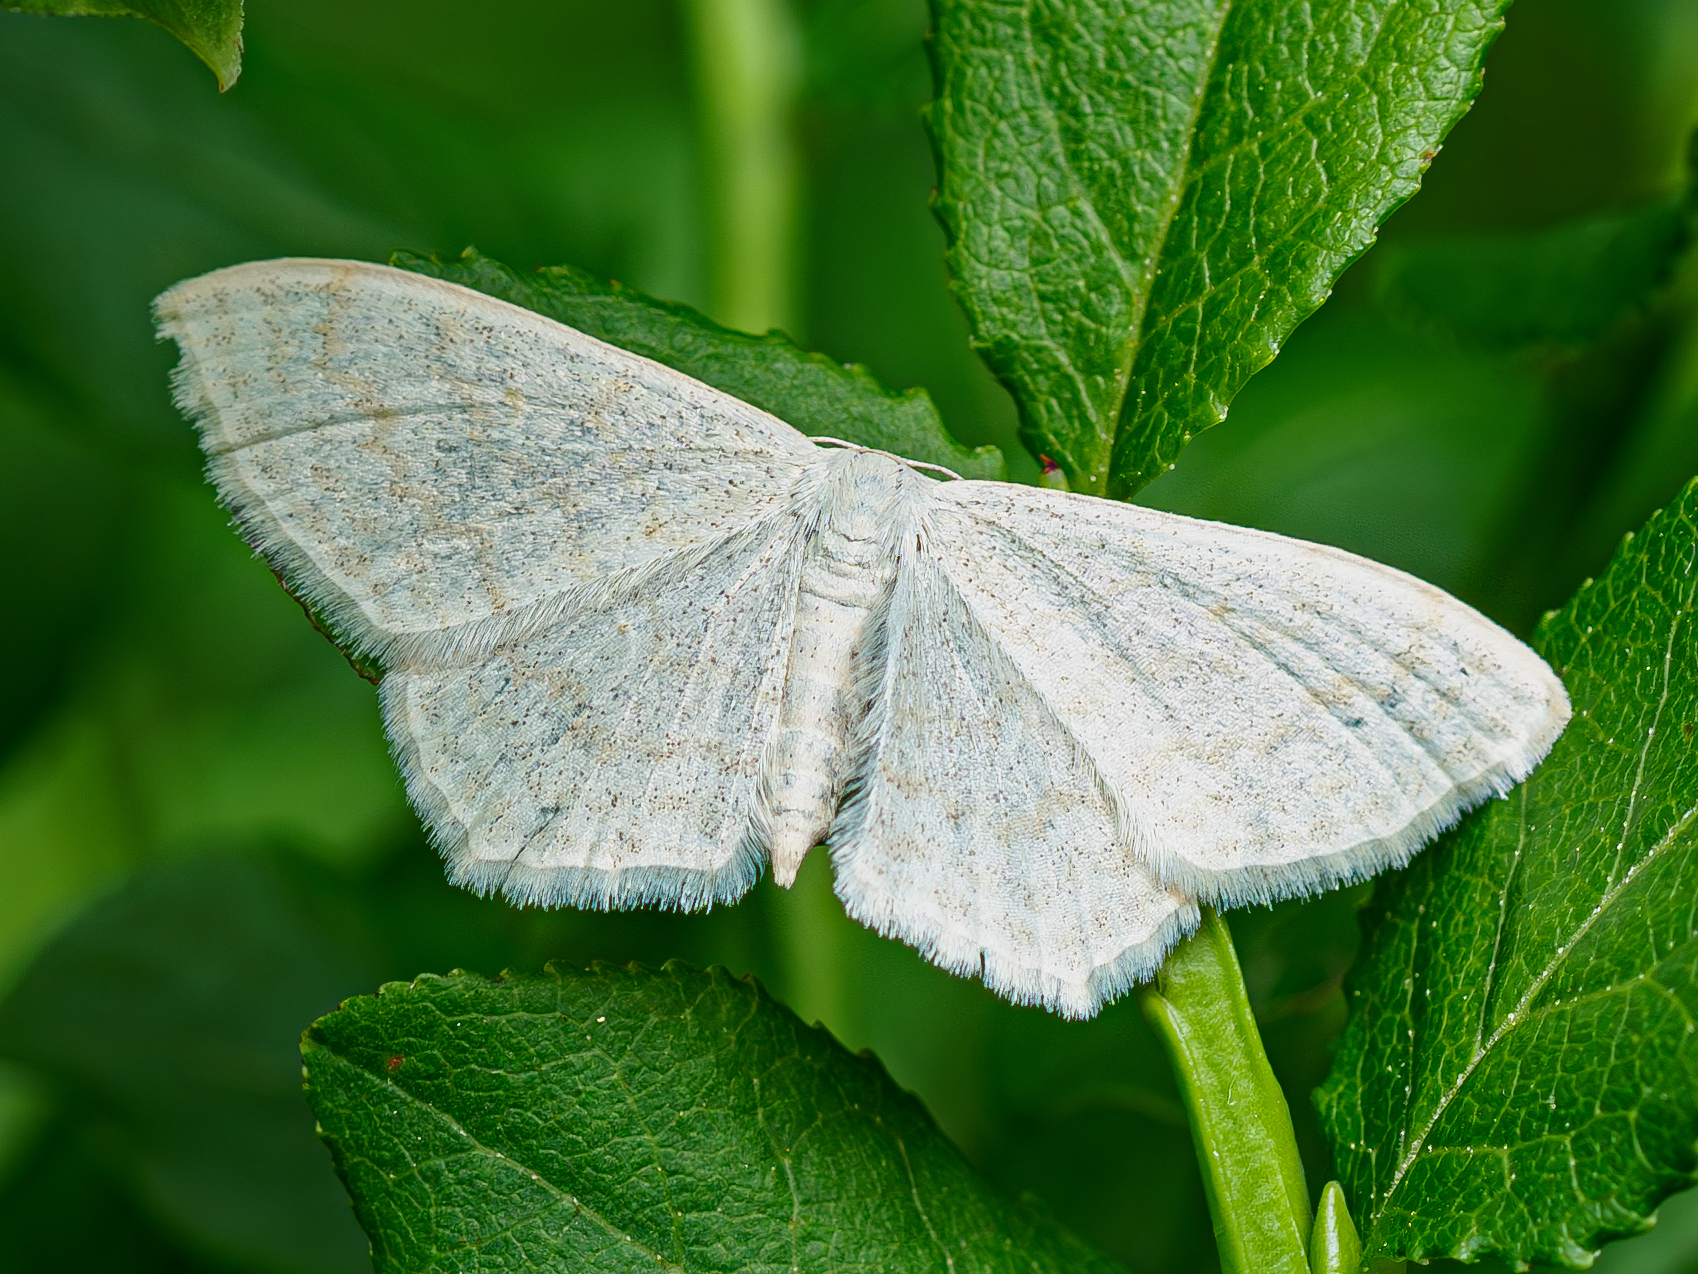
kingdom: Animalia
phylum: Arthropoda
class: Insecta
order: Lepidoptera
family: Geometridae
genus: Scopula
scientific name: Scopula floslactata
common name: Cream wave
